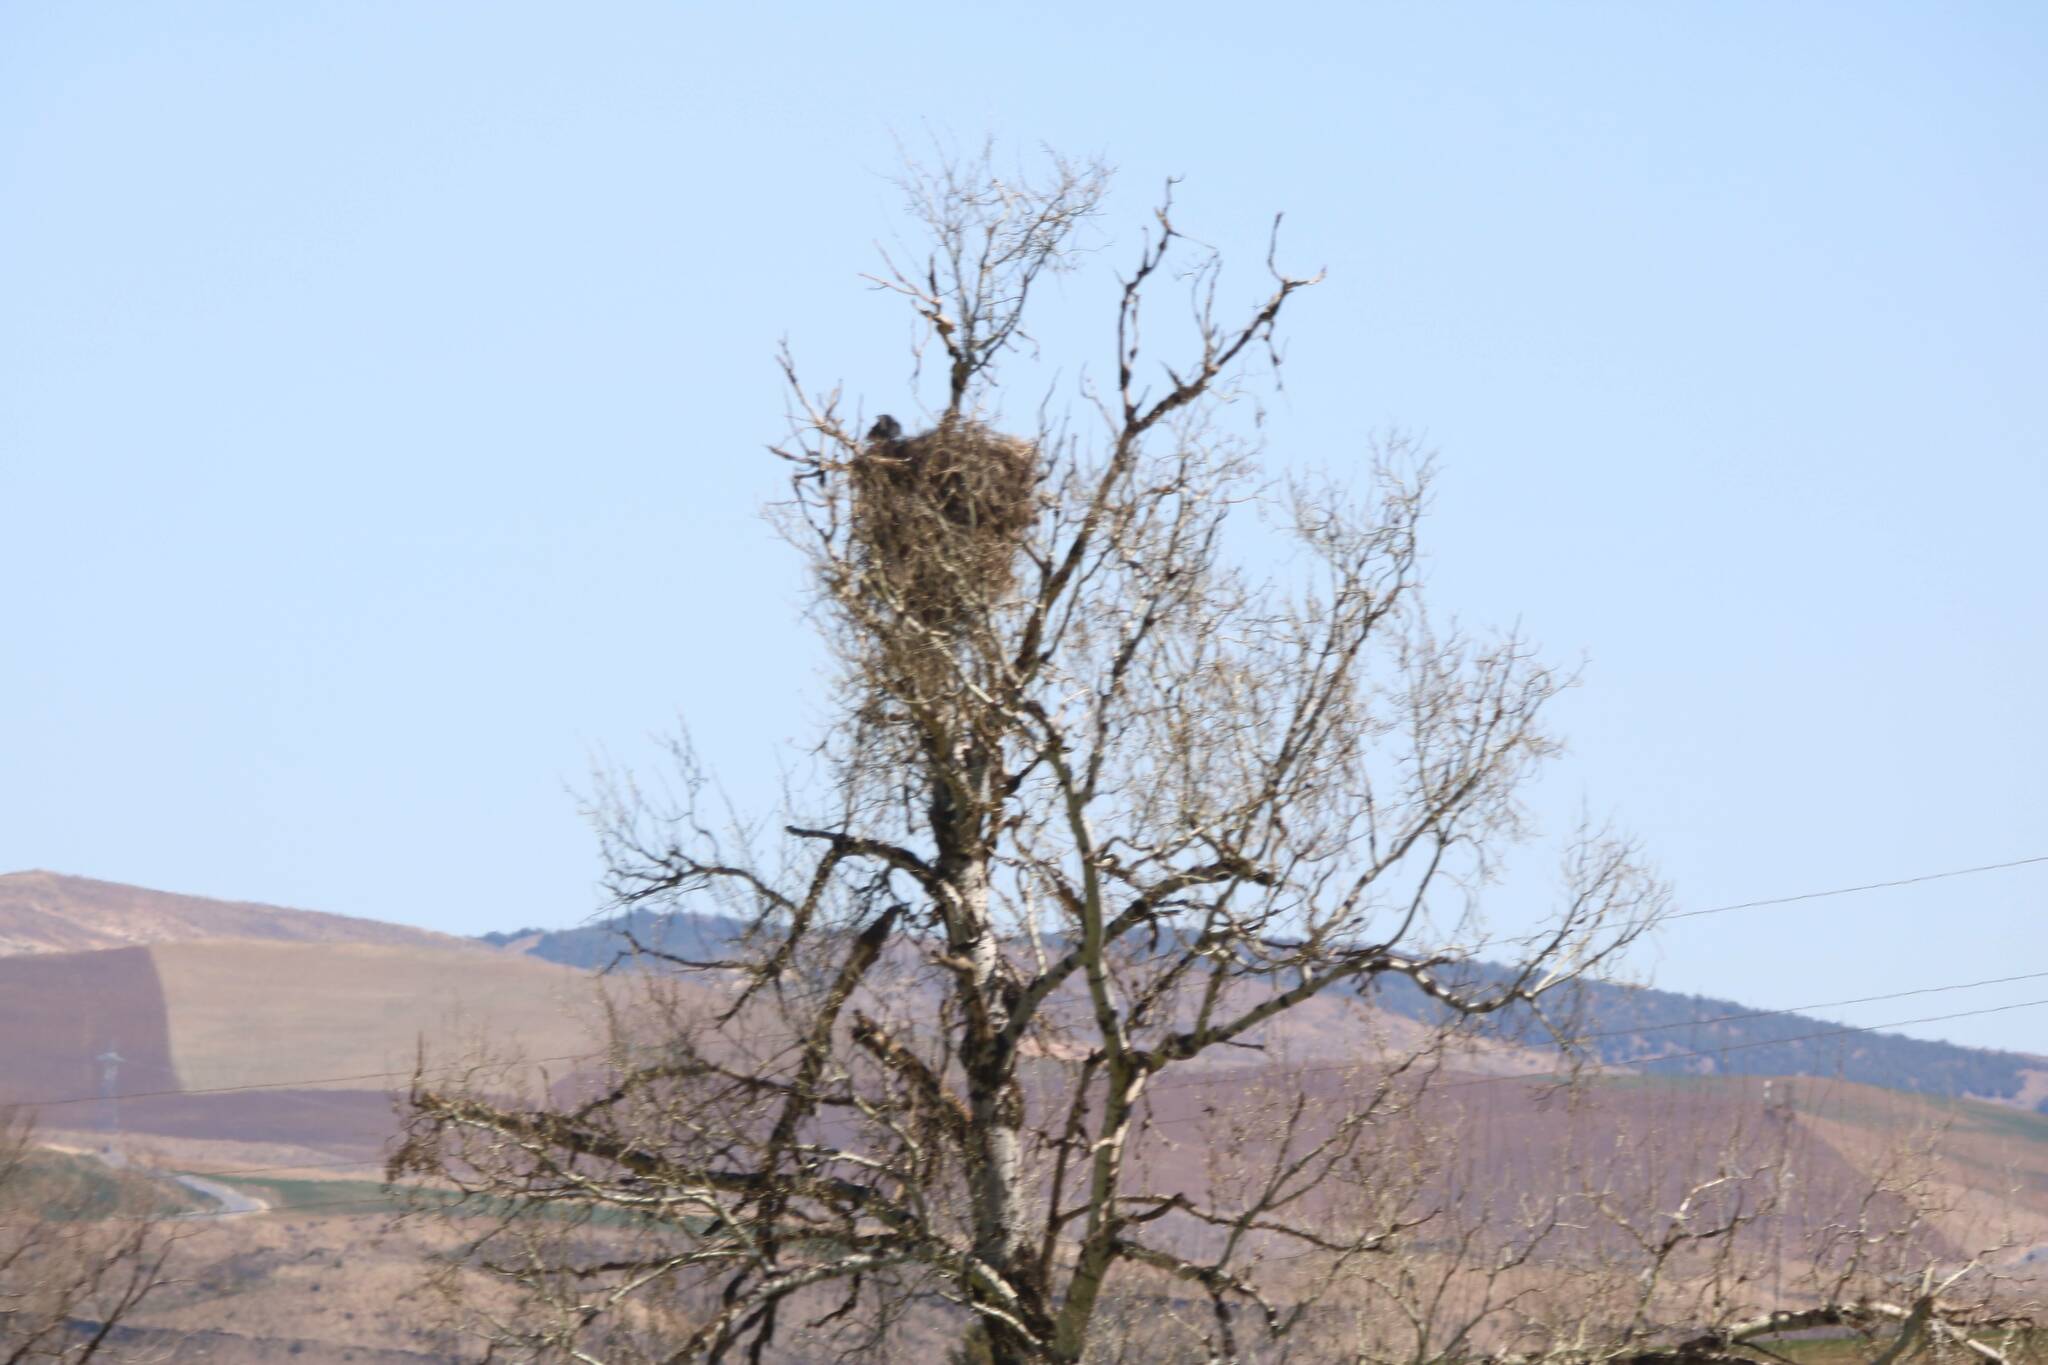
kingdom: Animalia
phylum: Chordata
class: Aves
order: Ciconiiformes
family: Ciconiidae
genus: Ciconia
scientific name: Ciconia ciconia
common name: White stork
